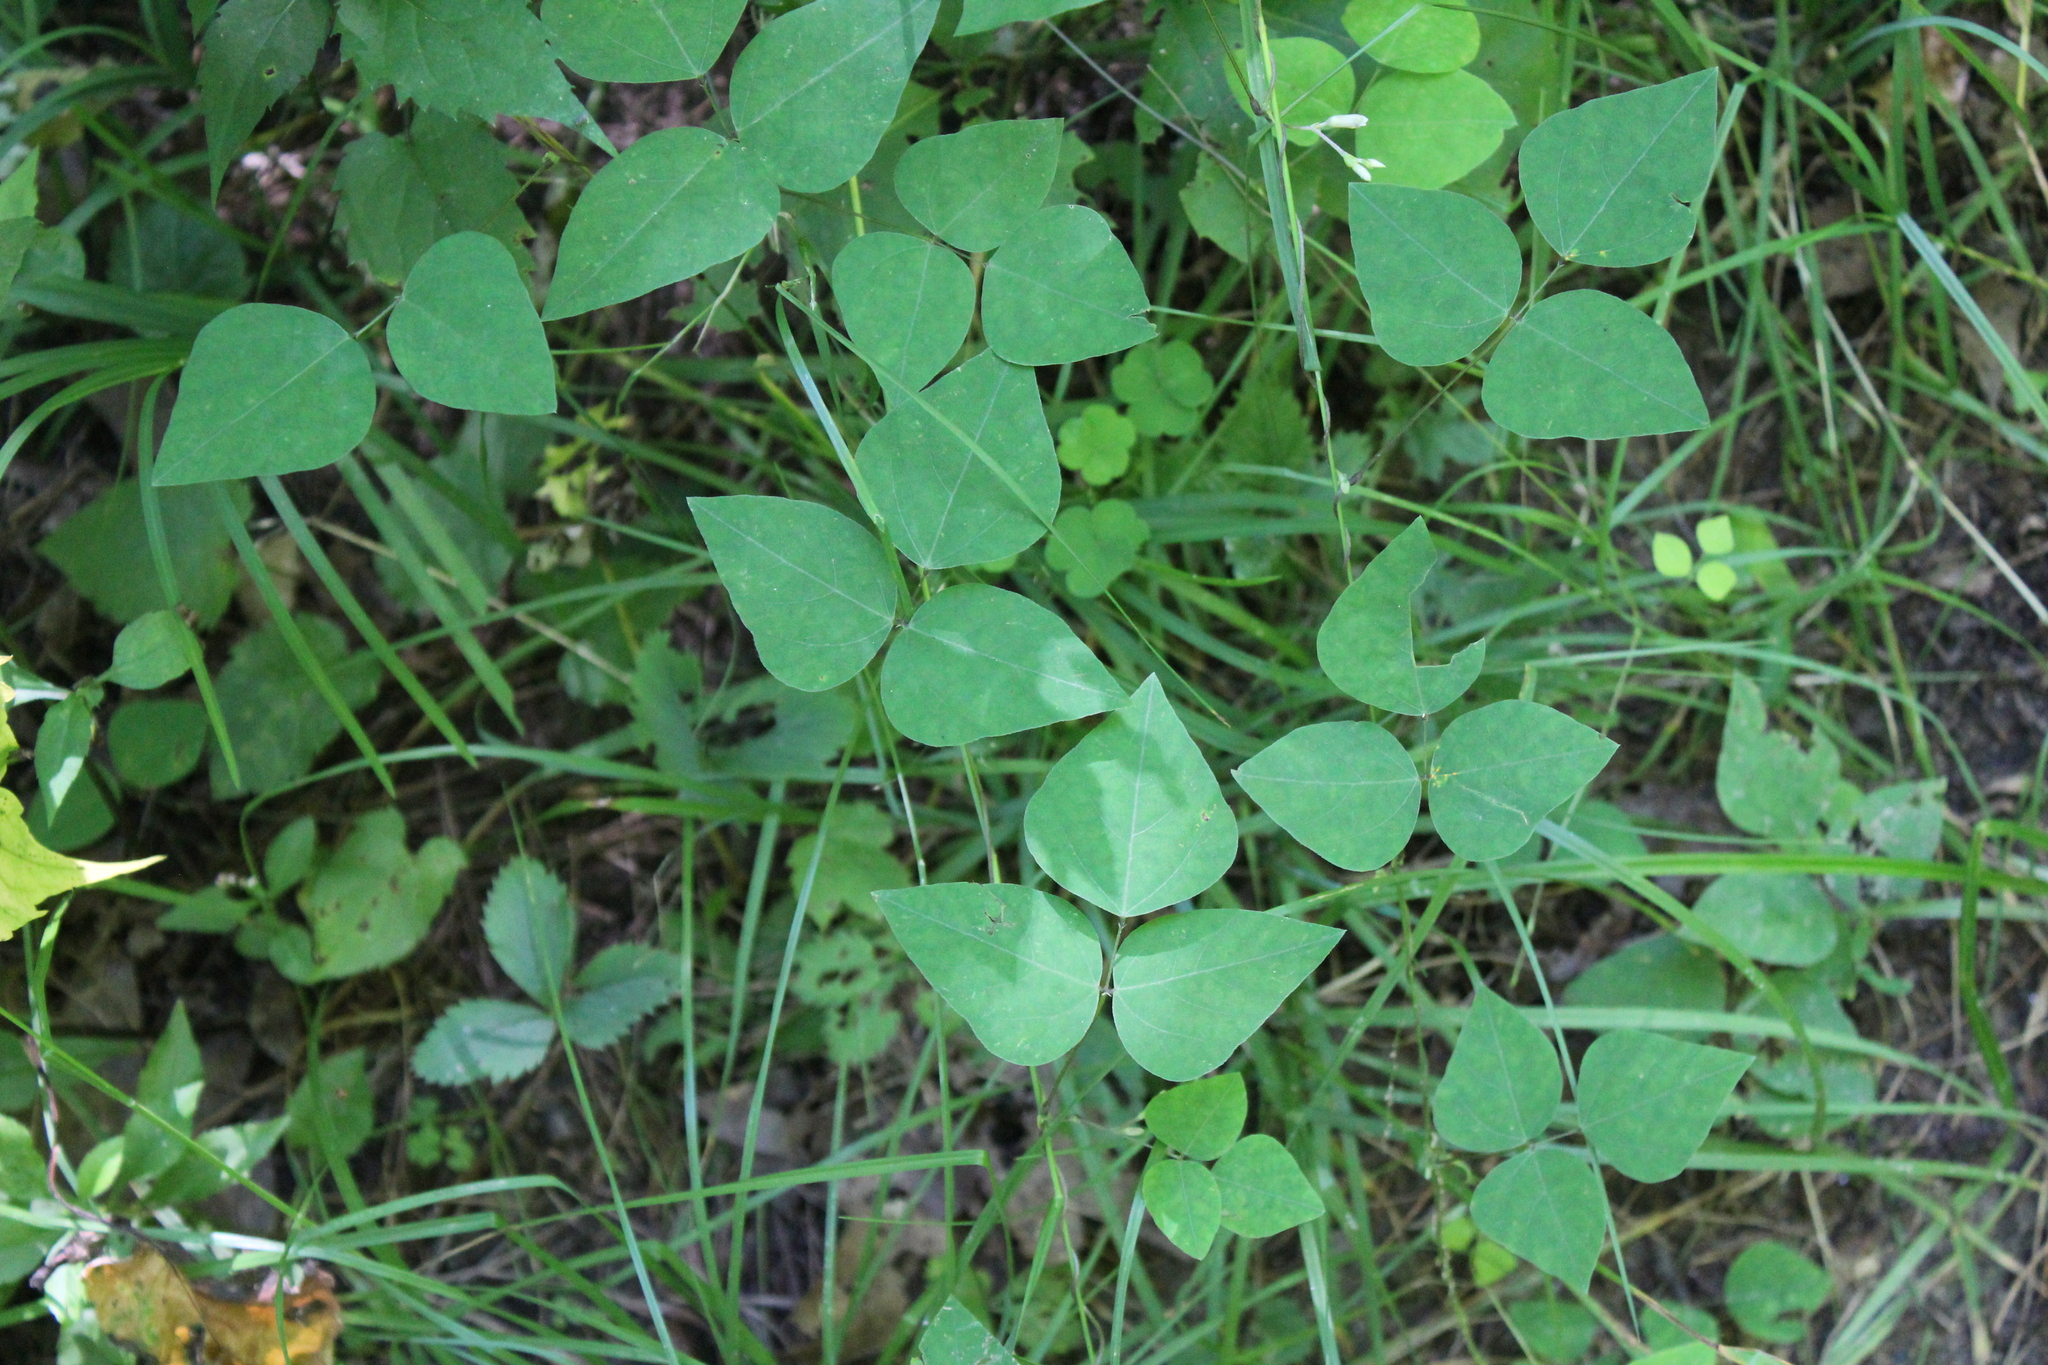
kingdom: Plantae
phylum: Tracheophyta
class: Magnoliopsida
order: Fabales
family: Fabaceae
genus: Amphicarpaea
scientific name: Amphicarpaea bracteata
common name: American hog peanut
